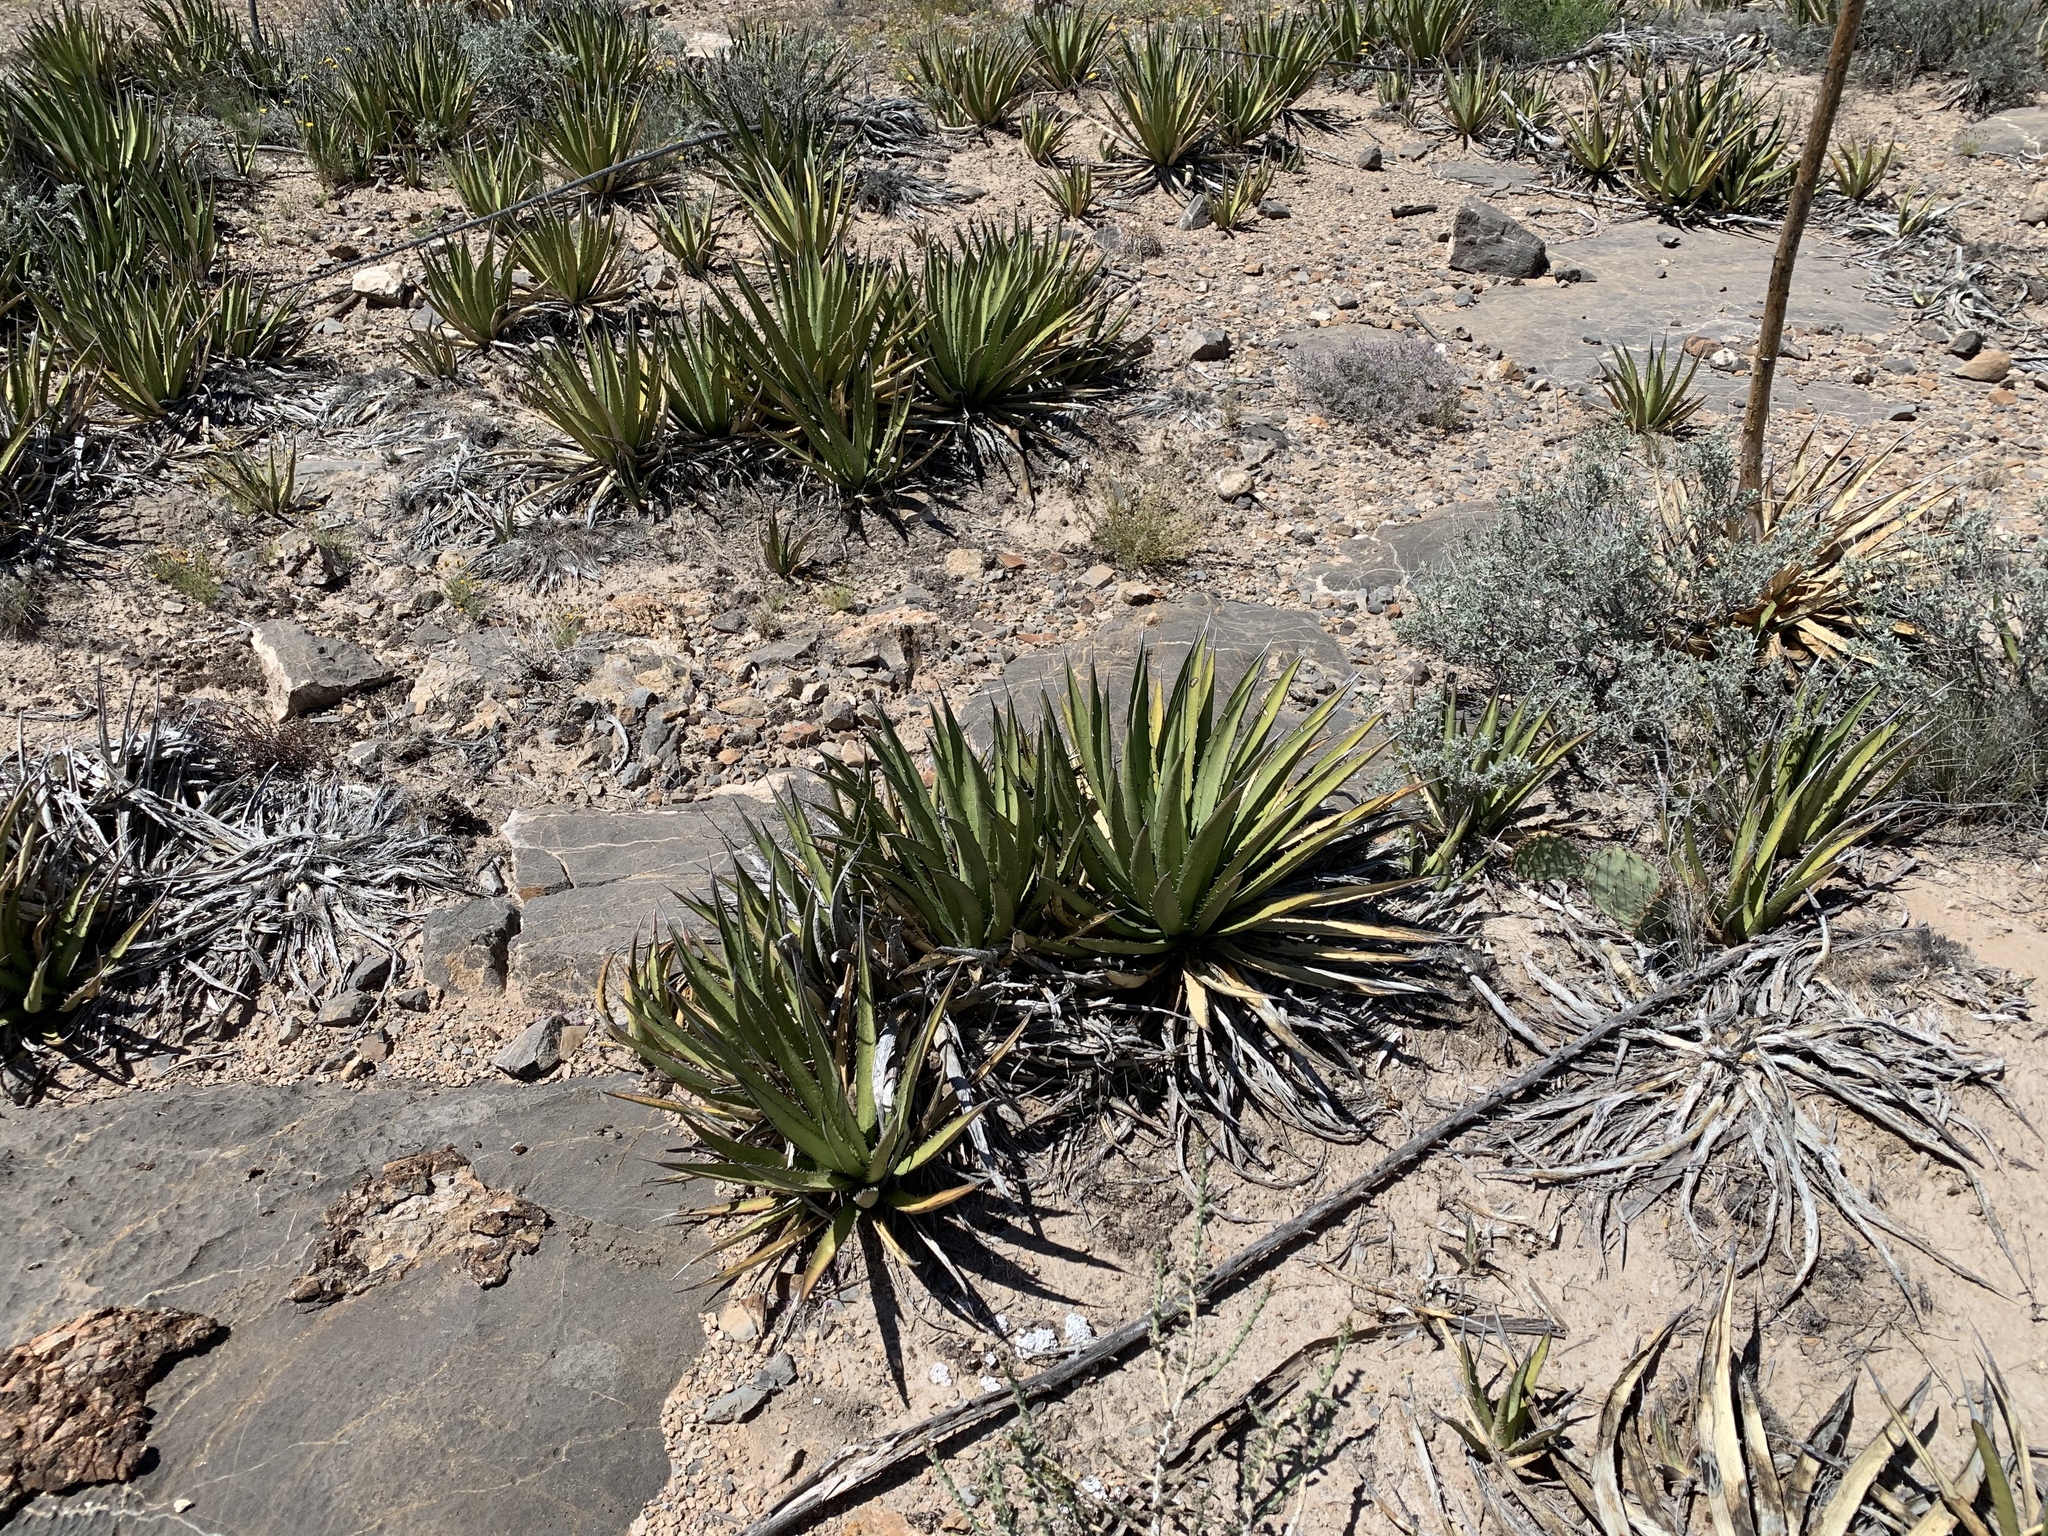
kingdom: Plantae
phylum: Tracheophyta
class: Liliopsida
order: Asparagales
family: Asparagaceae
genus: Agave
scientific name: Agave lechuguilla
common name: Lecheguilla agave
